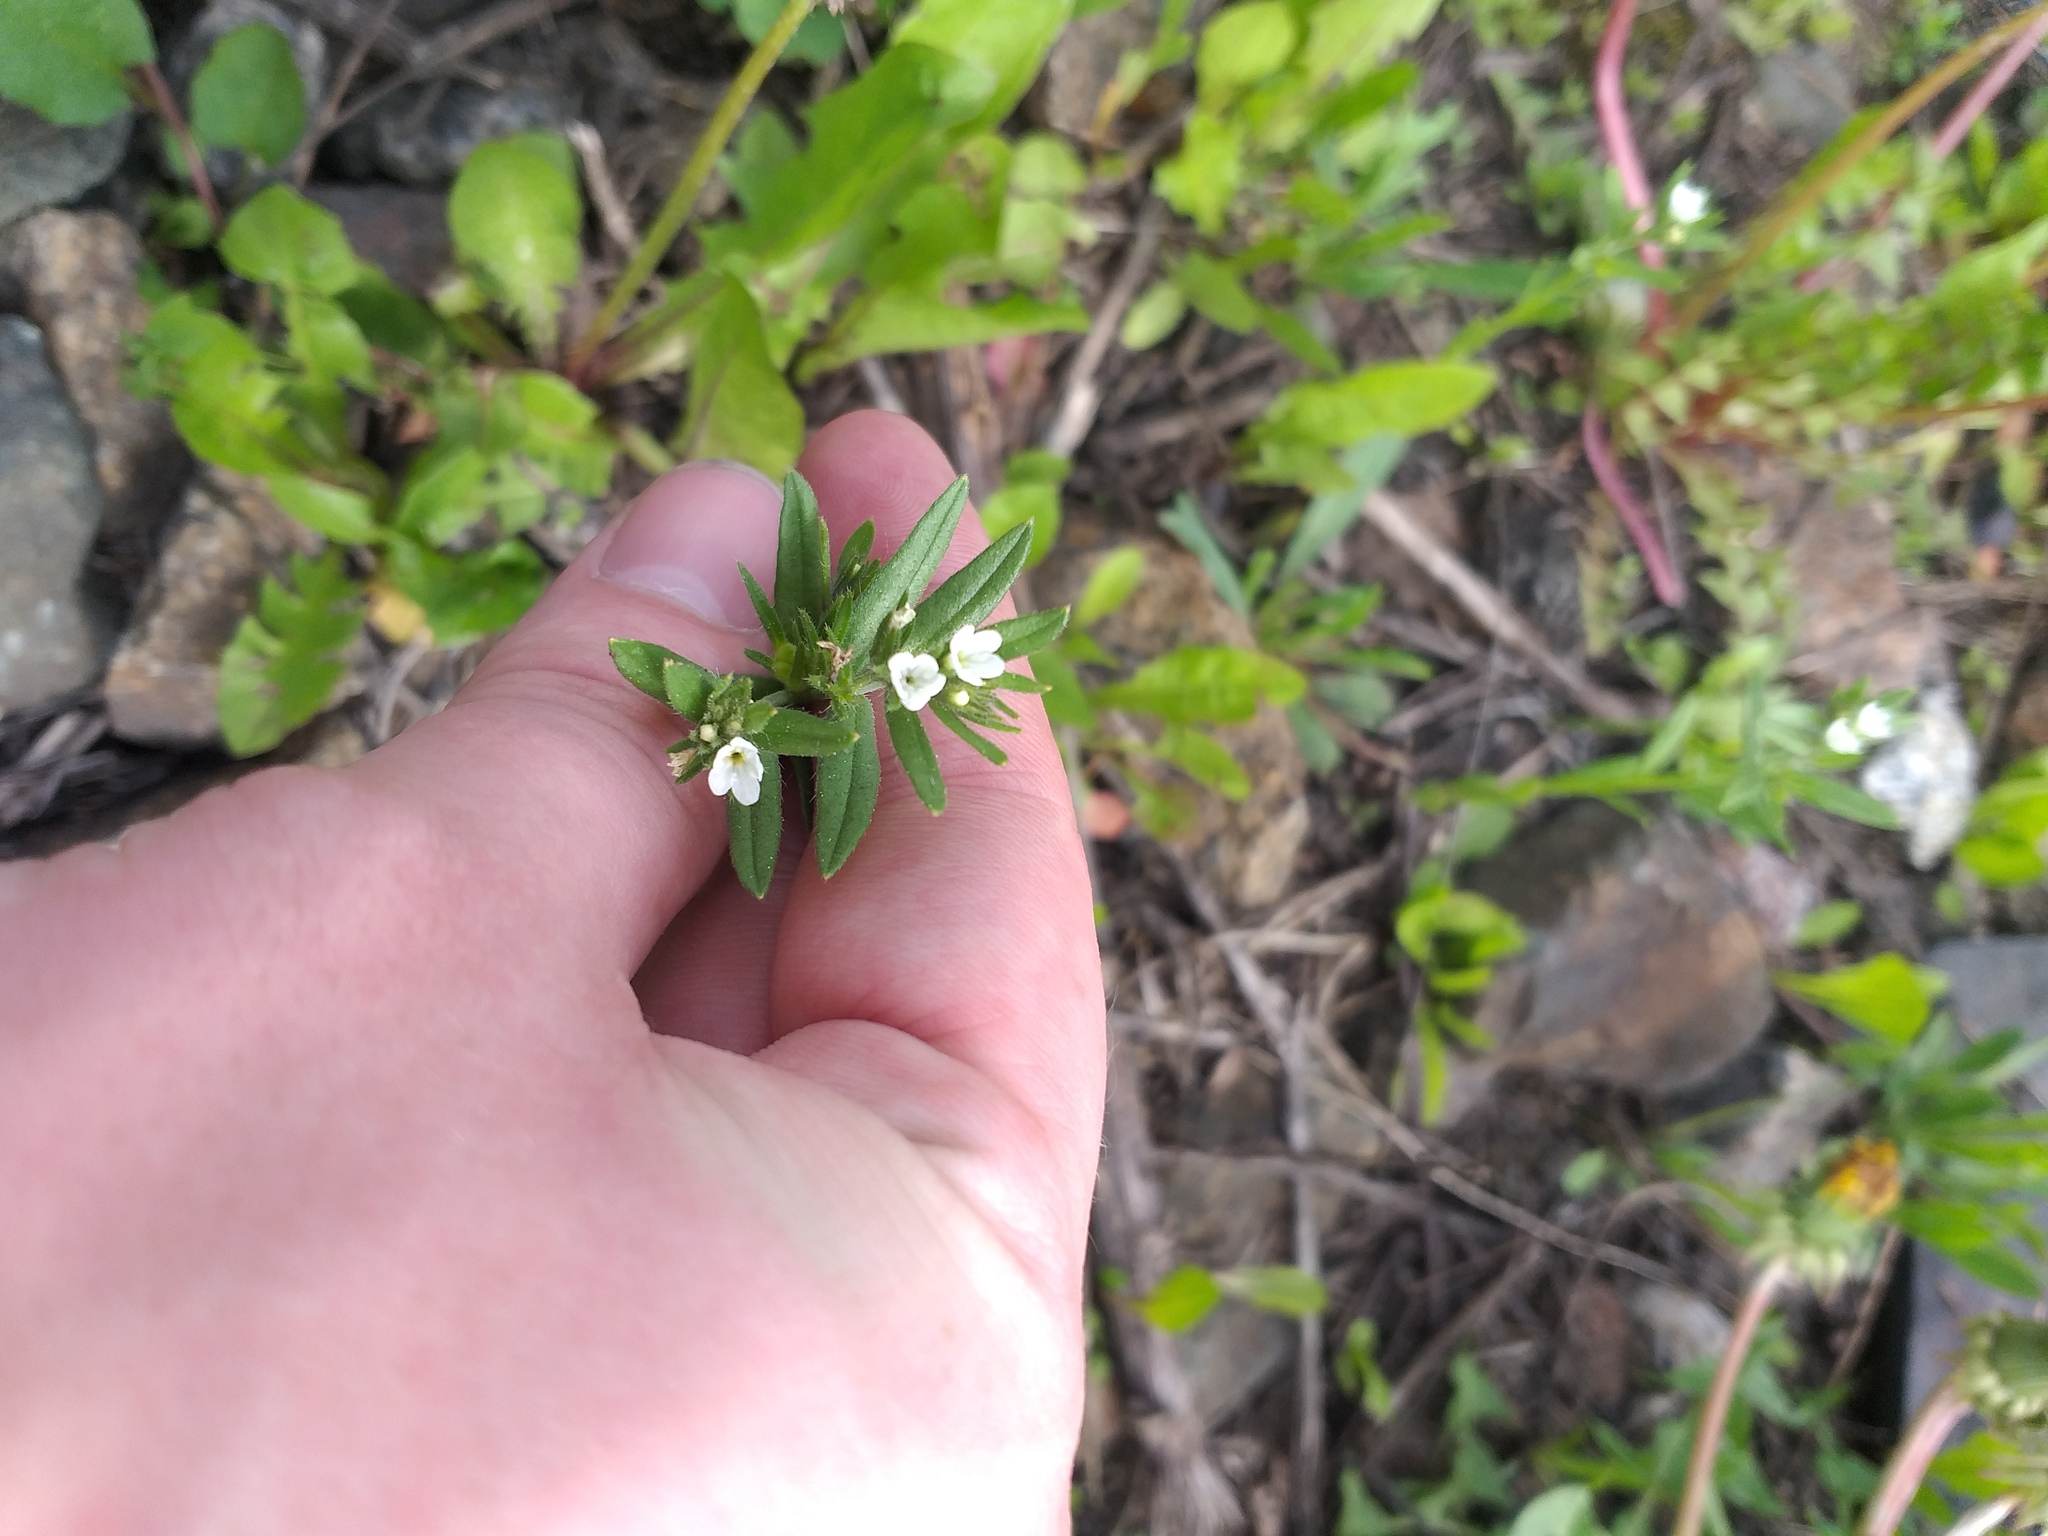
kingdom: Plantae
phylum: Tracheophyta
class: Magnoliopsida
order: Boraginales
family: Boraginaceae
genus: Buglossoides
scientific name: Buglossoides arvensis
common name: Corn gromwell
